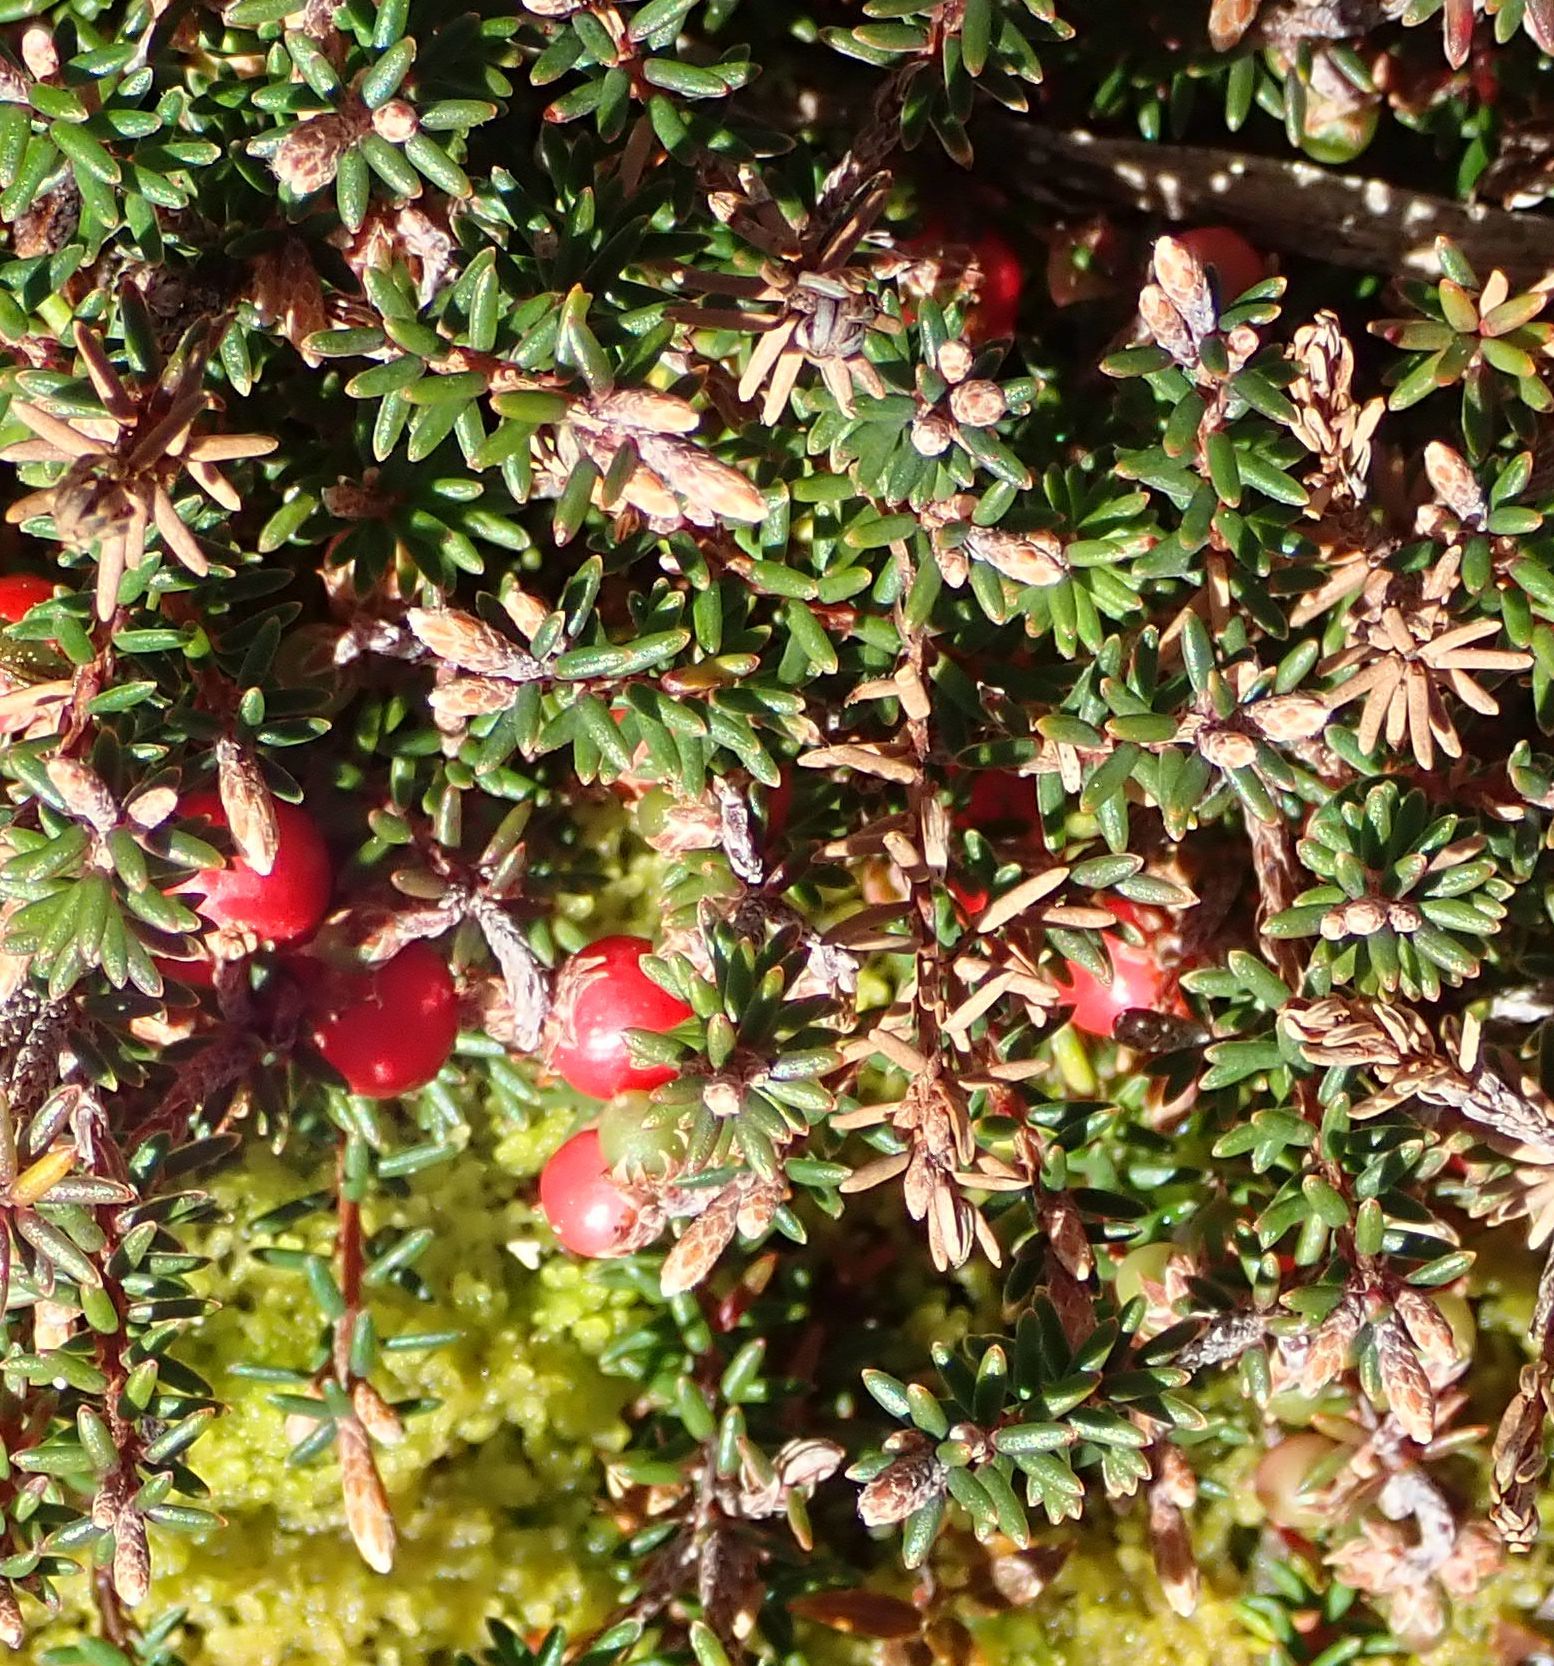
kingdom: Plantae
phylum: Tracheophyta
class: Magnoliopsida
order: Ericales
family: Ericaceae
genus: Androstoma
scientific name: Androstoma empetrifolia
